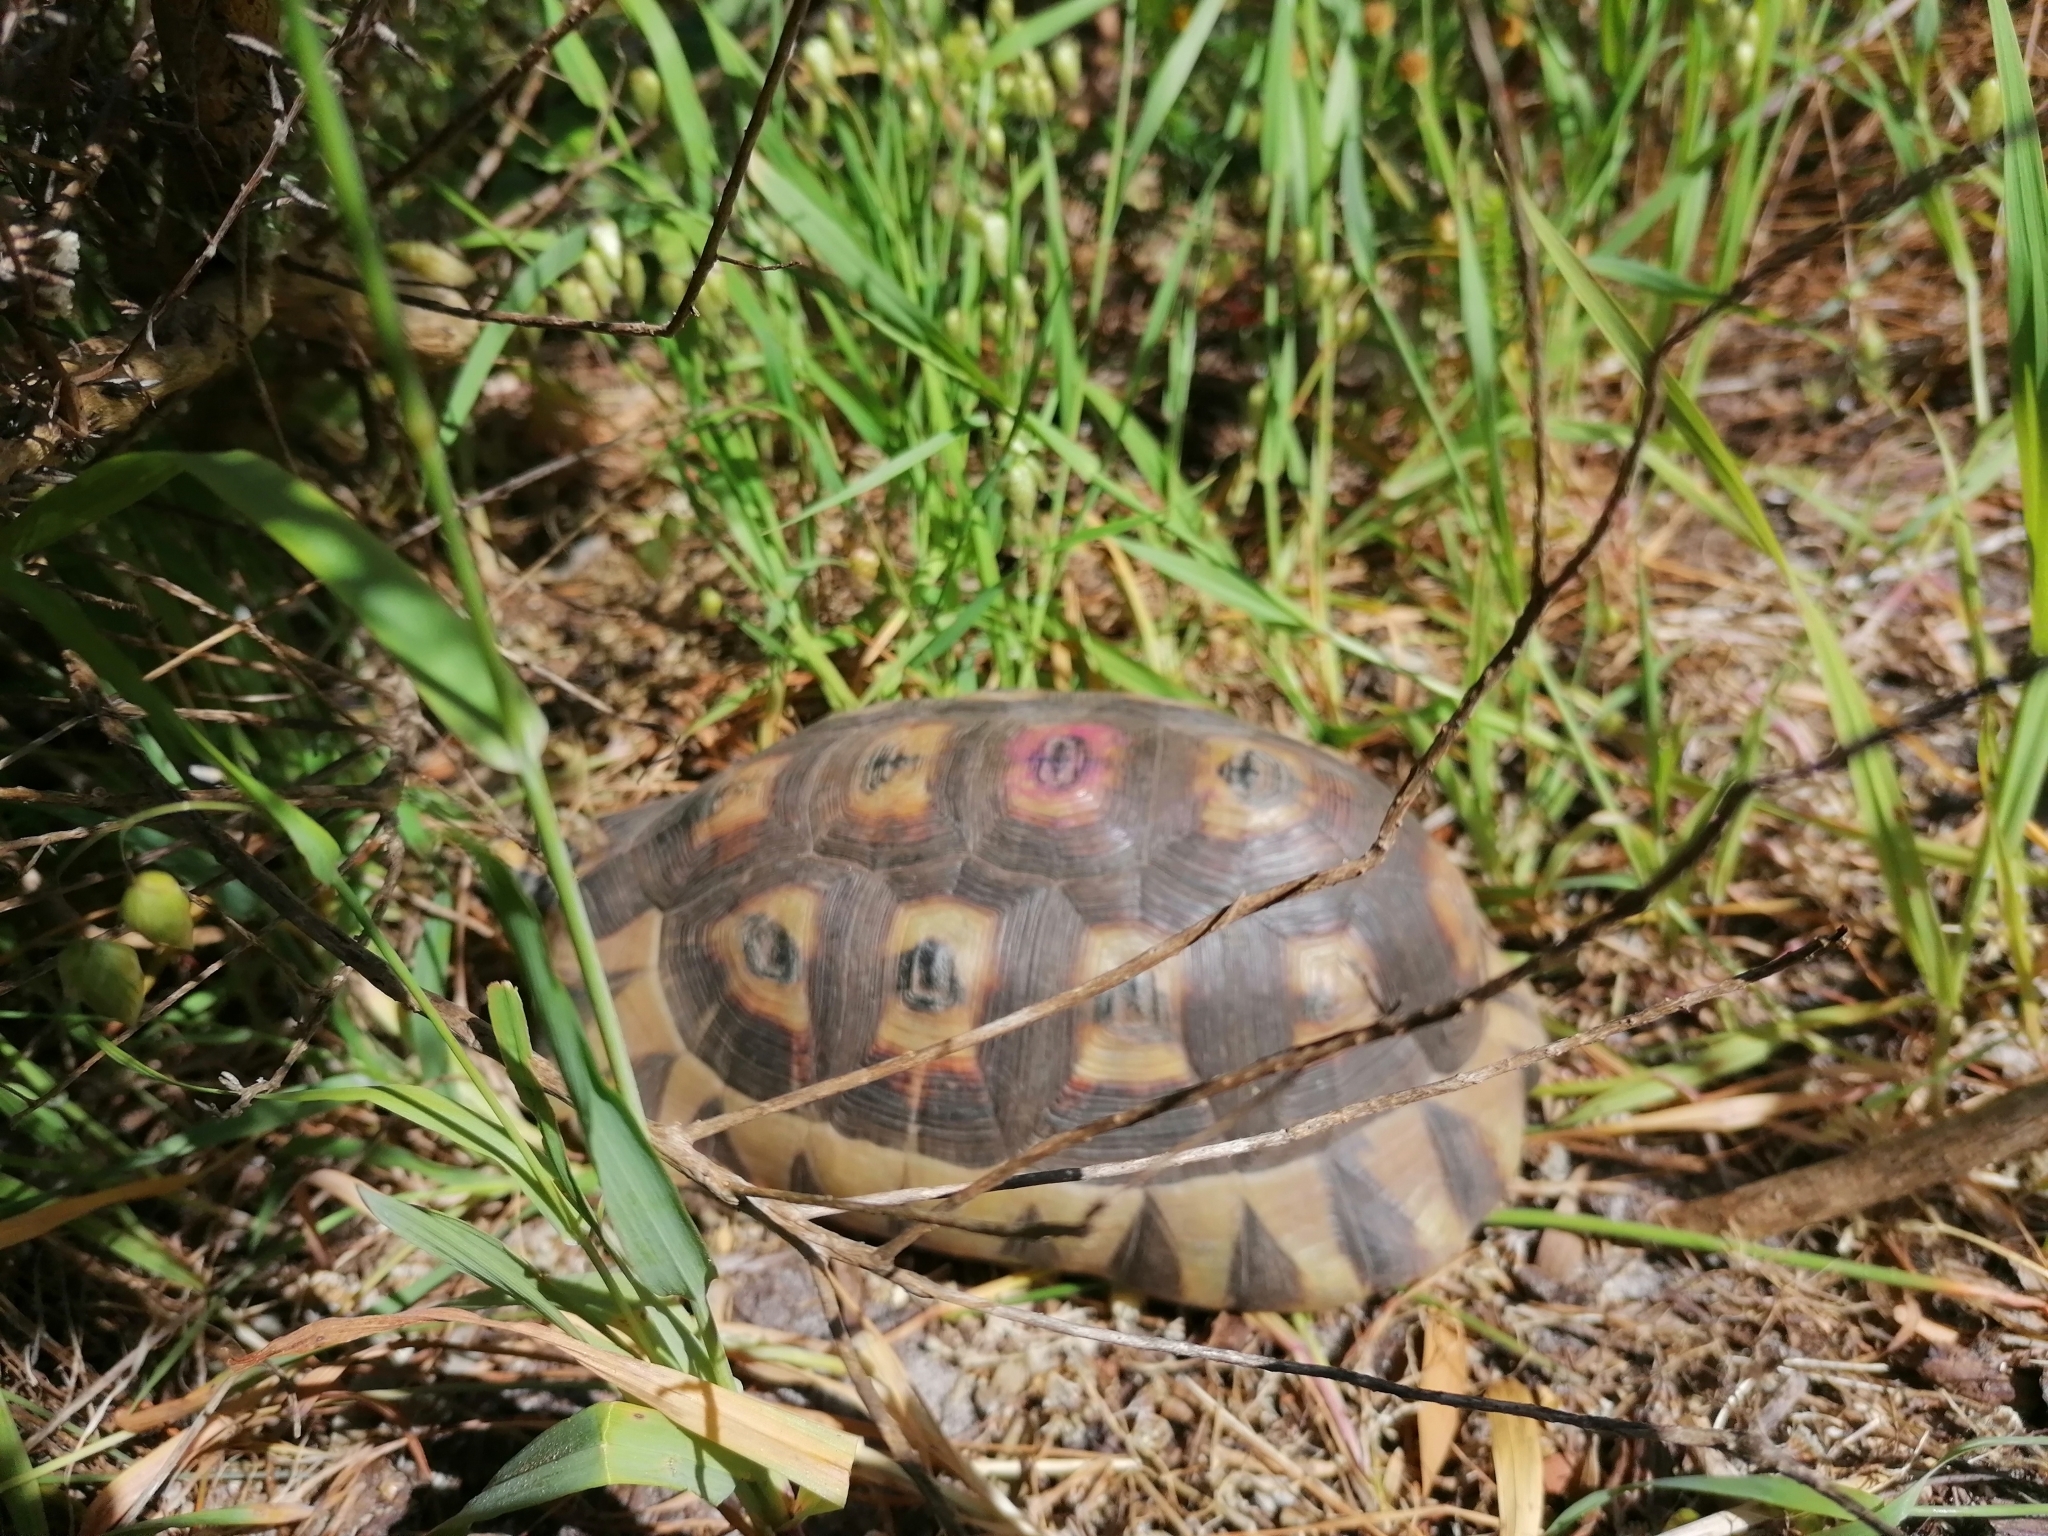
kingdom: Animalia
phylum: Chordata
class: Testudines
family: Testudinidae
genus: Chersina
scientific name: Chersina angulata
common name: South african bowsprit tortoise
